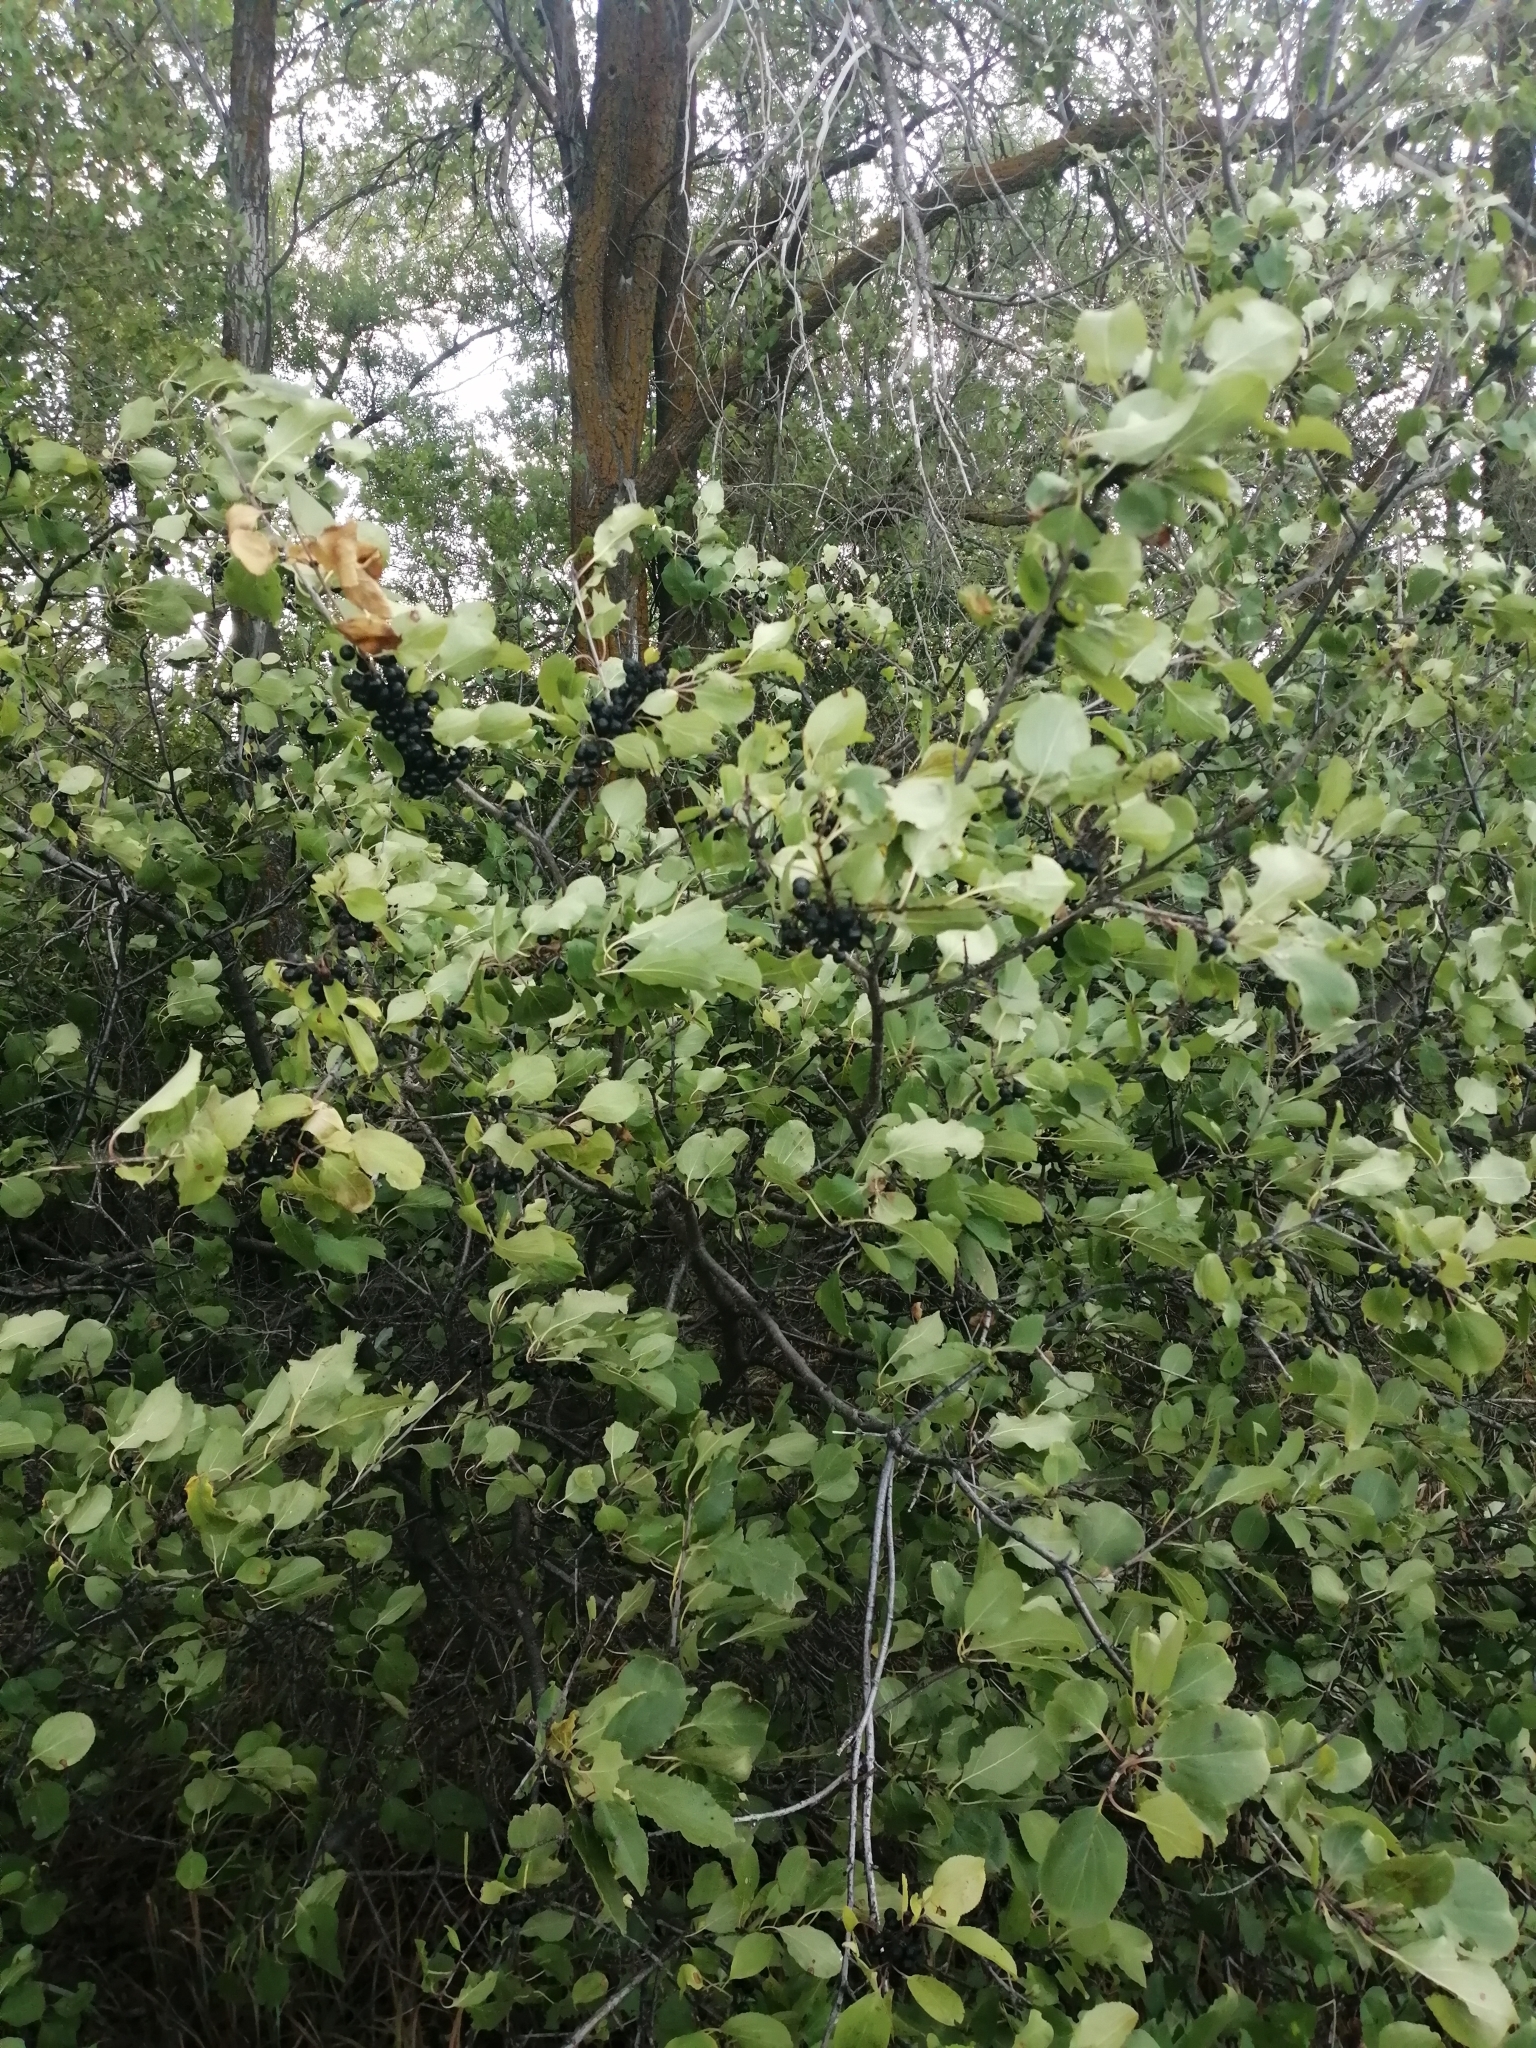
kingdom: Plantae
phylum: Tracheophyta
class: Magnoliopsida
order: Rosales
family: Rhamnaceae
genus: Rhamnus
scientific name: Rhamnus cathartica
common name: Common buckthorn
